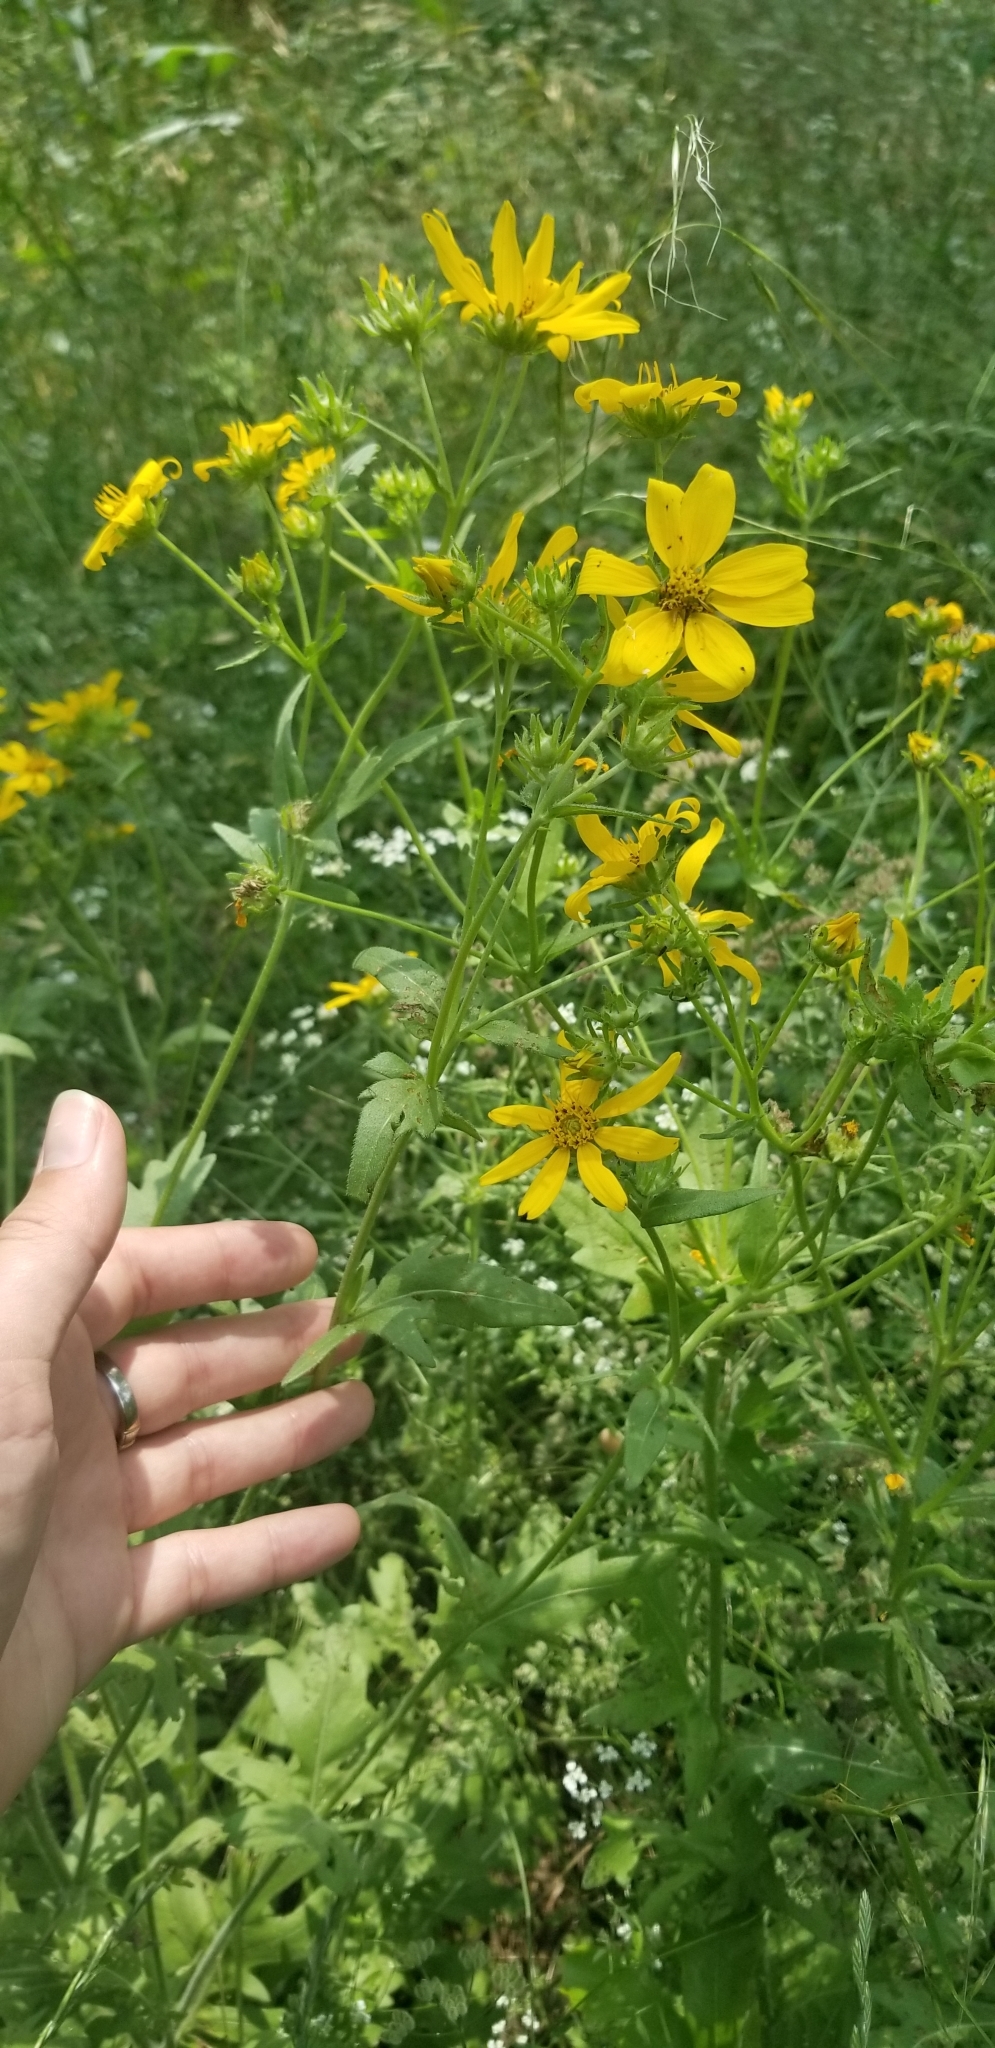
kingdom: Plantae
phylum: Tracheophyta
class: Magnoliopsida
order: Asterales
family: Asteraceae
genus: Engelmannia
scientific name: Engelmannia peristenia
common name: Engelmann's daisy
